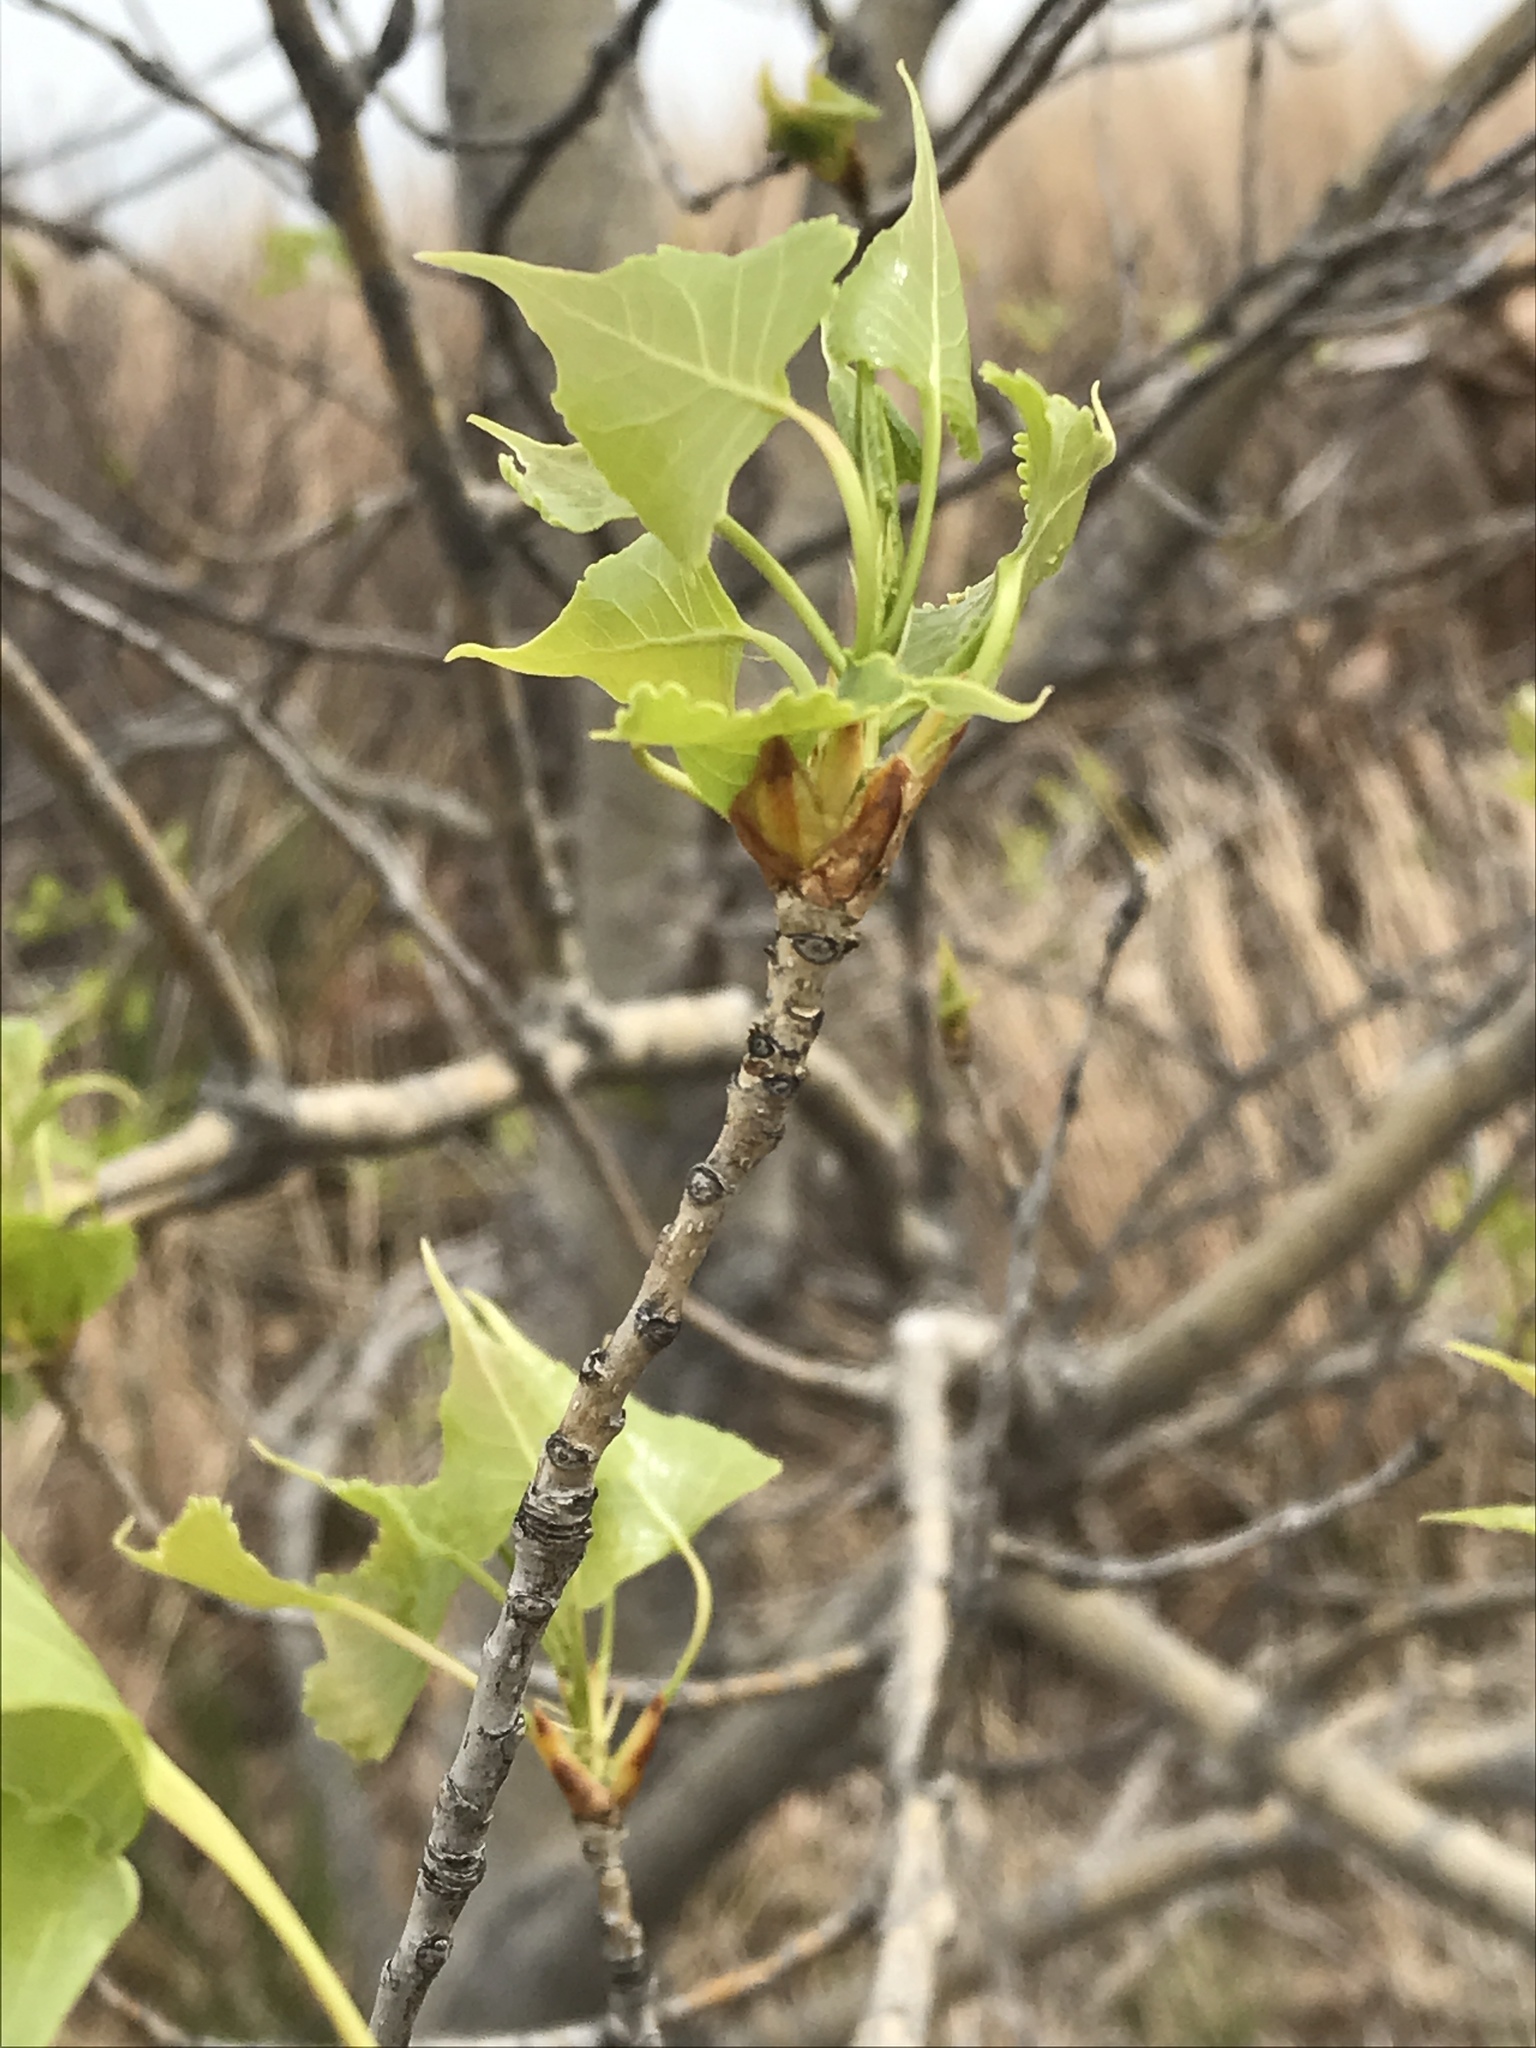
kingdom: Plantae
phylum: Tracheophyta
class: Magnoliopsida
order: Malpighiales
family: Salicaceae
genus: Populus
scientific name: Populus deltoides
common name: Eastern cottonwood
